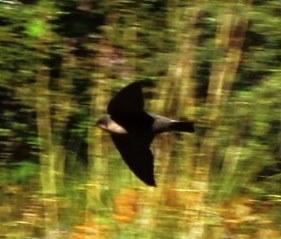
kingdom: Animalia
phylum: Chordata
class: Aves
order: Passeriformes
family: Hirundinidae
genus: Ptyonoprogne
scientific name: Ptyonoprogne fuligula
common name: Rock martin
